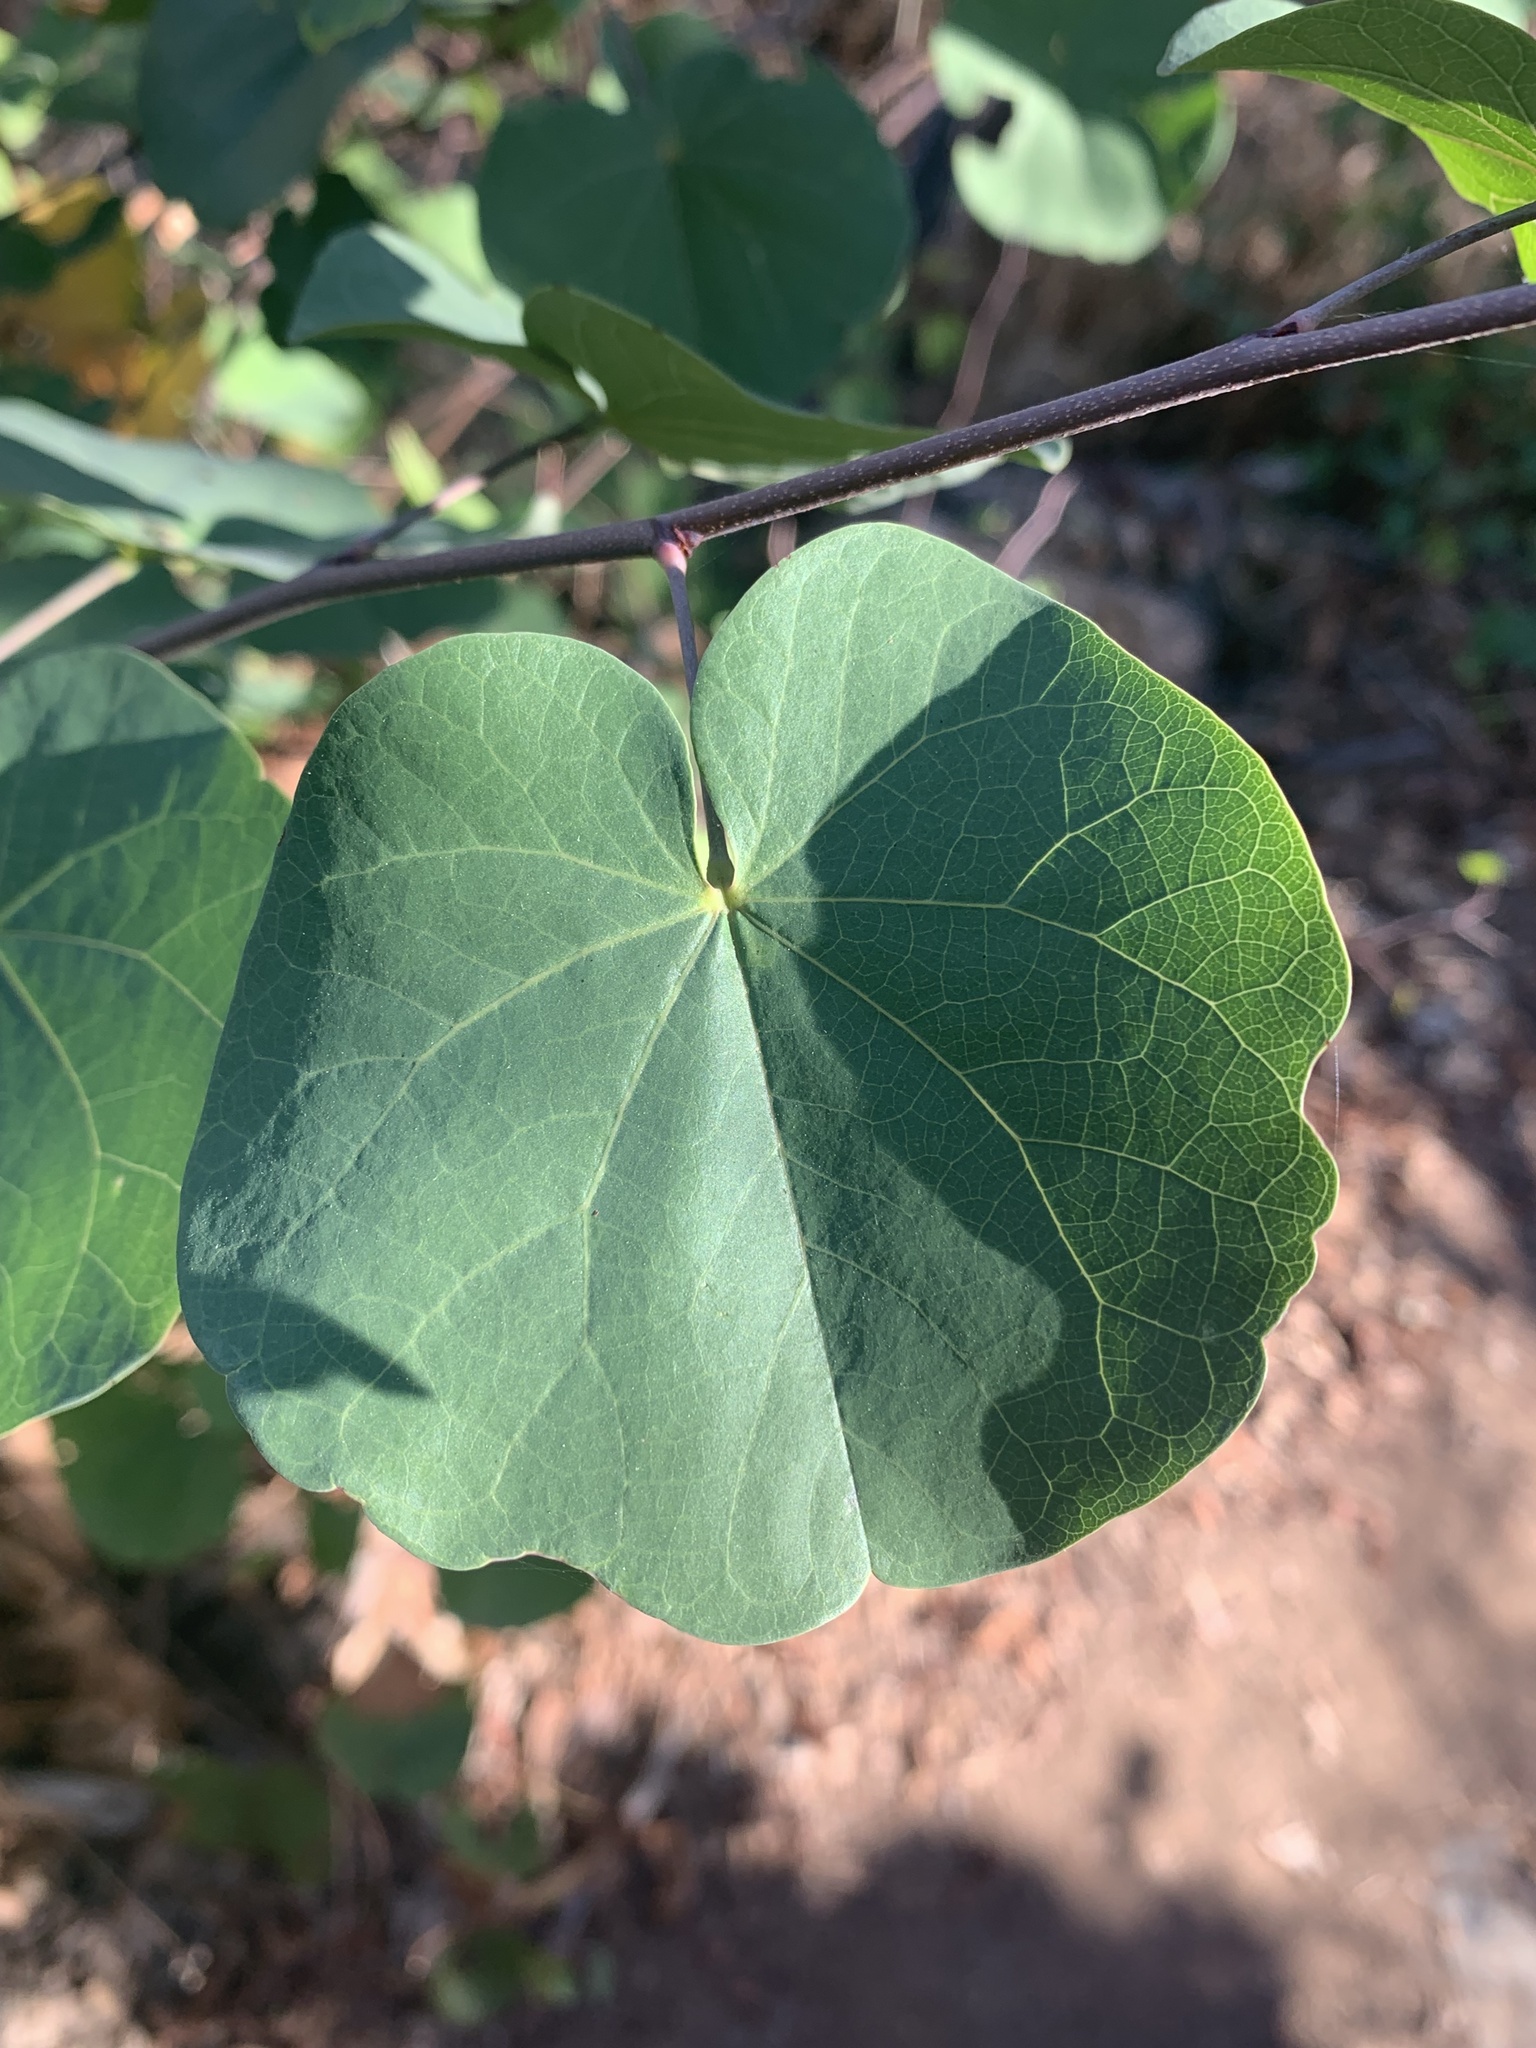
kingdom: Plantae
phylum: Tracheophyta
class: Magnoliopsida
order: Fabales
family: Fabaceae
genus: Cercis
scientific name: Cercis occidentalis
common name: California redbud
